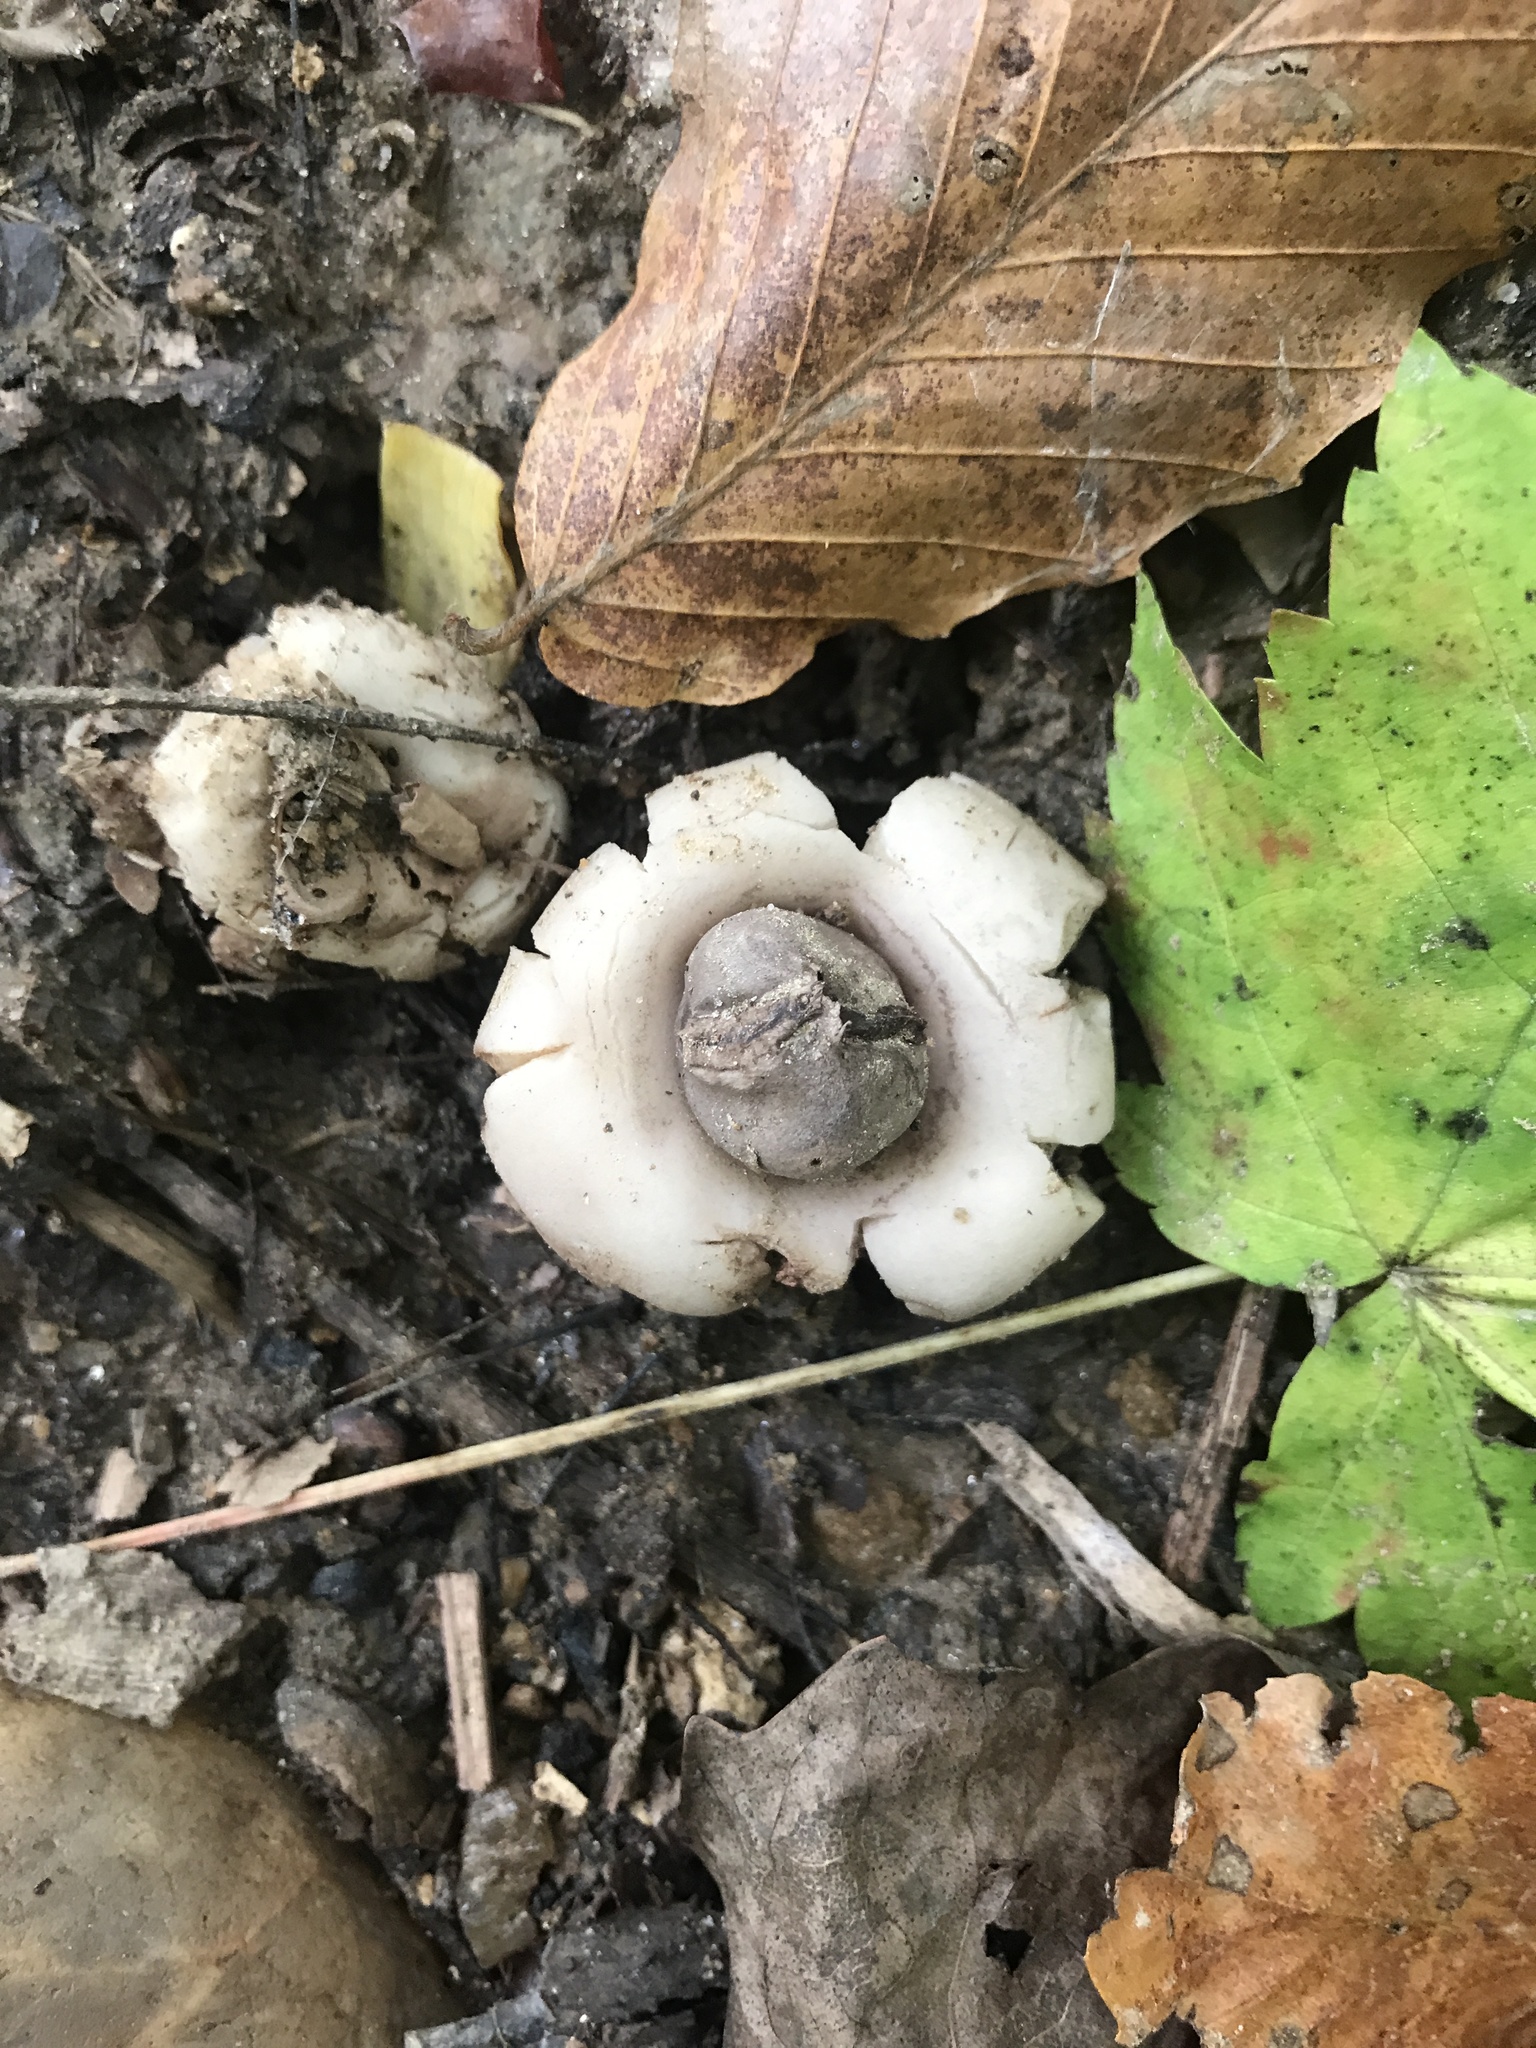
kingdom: Fungi
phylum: Basidiomycota
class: Agaricomycetes
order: Geastrales
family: Geastraceae
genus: Geastrum
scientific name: Geastrum saccatum
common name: Rounded earthstar
